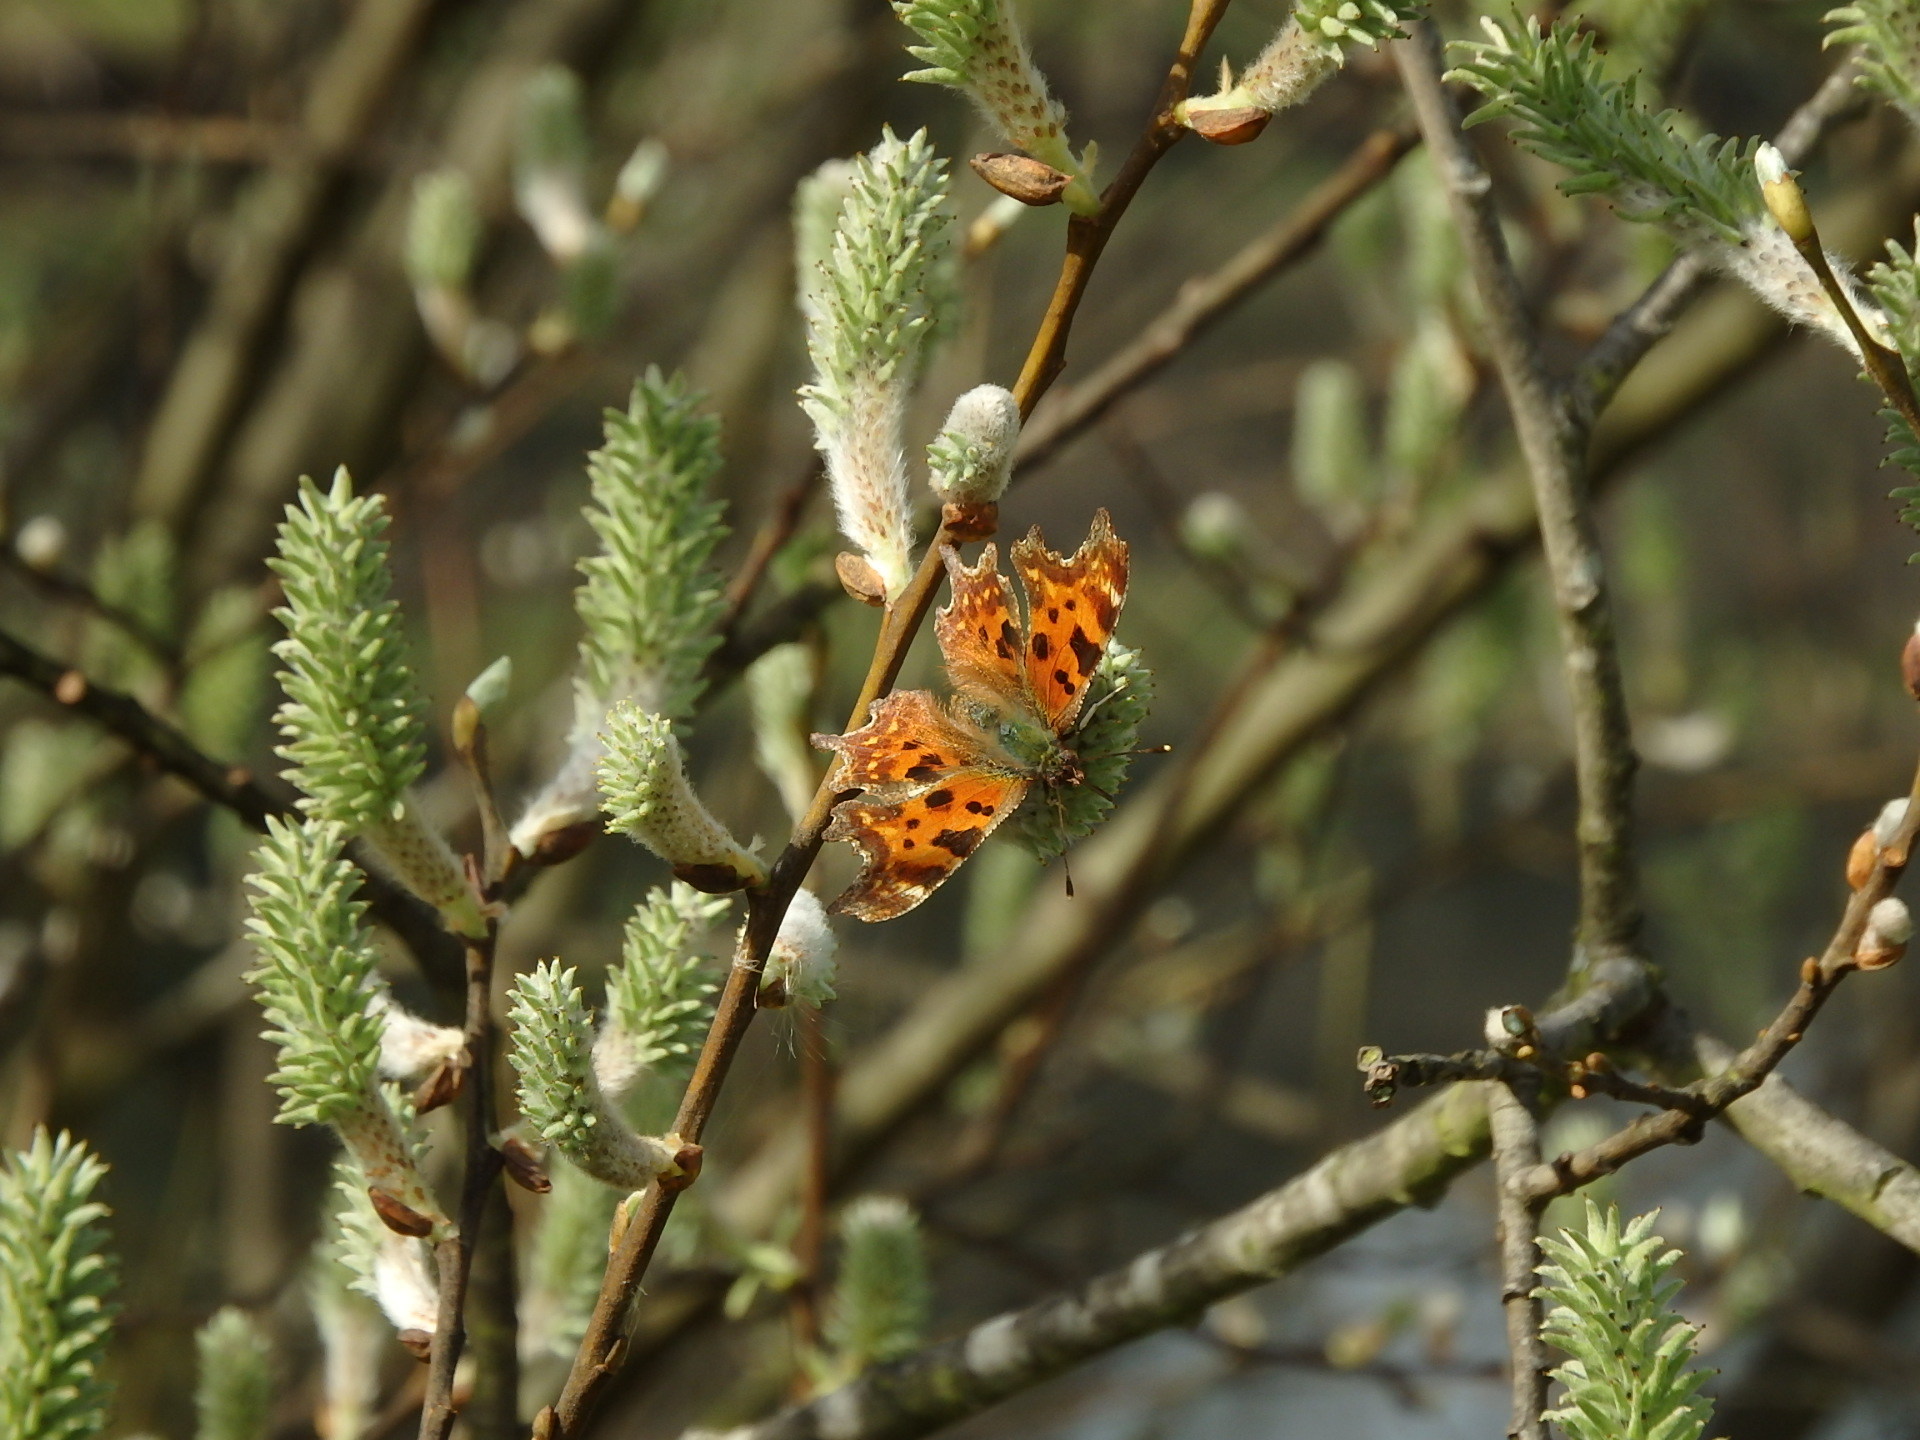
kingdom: Animalia
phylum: Arthropoda
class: Insecta
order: Lepidoptera
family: Nymphalidae
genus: Polygonia
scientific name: Polygonia c-album
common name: Comma
